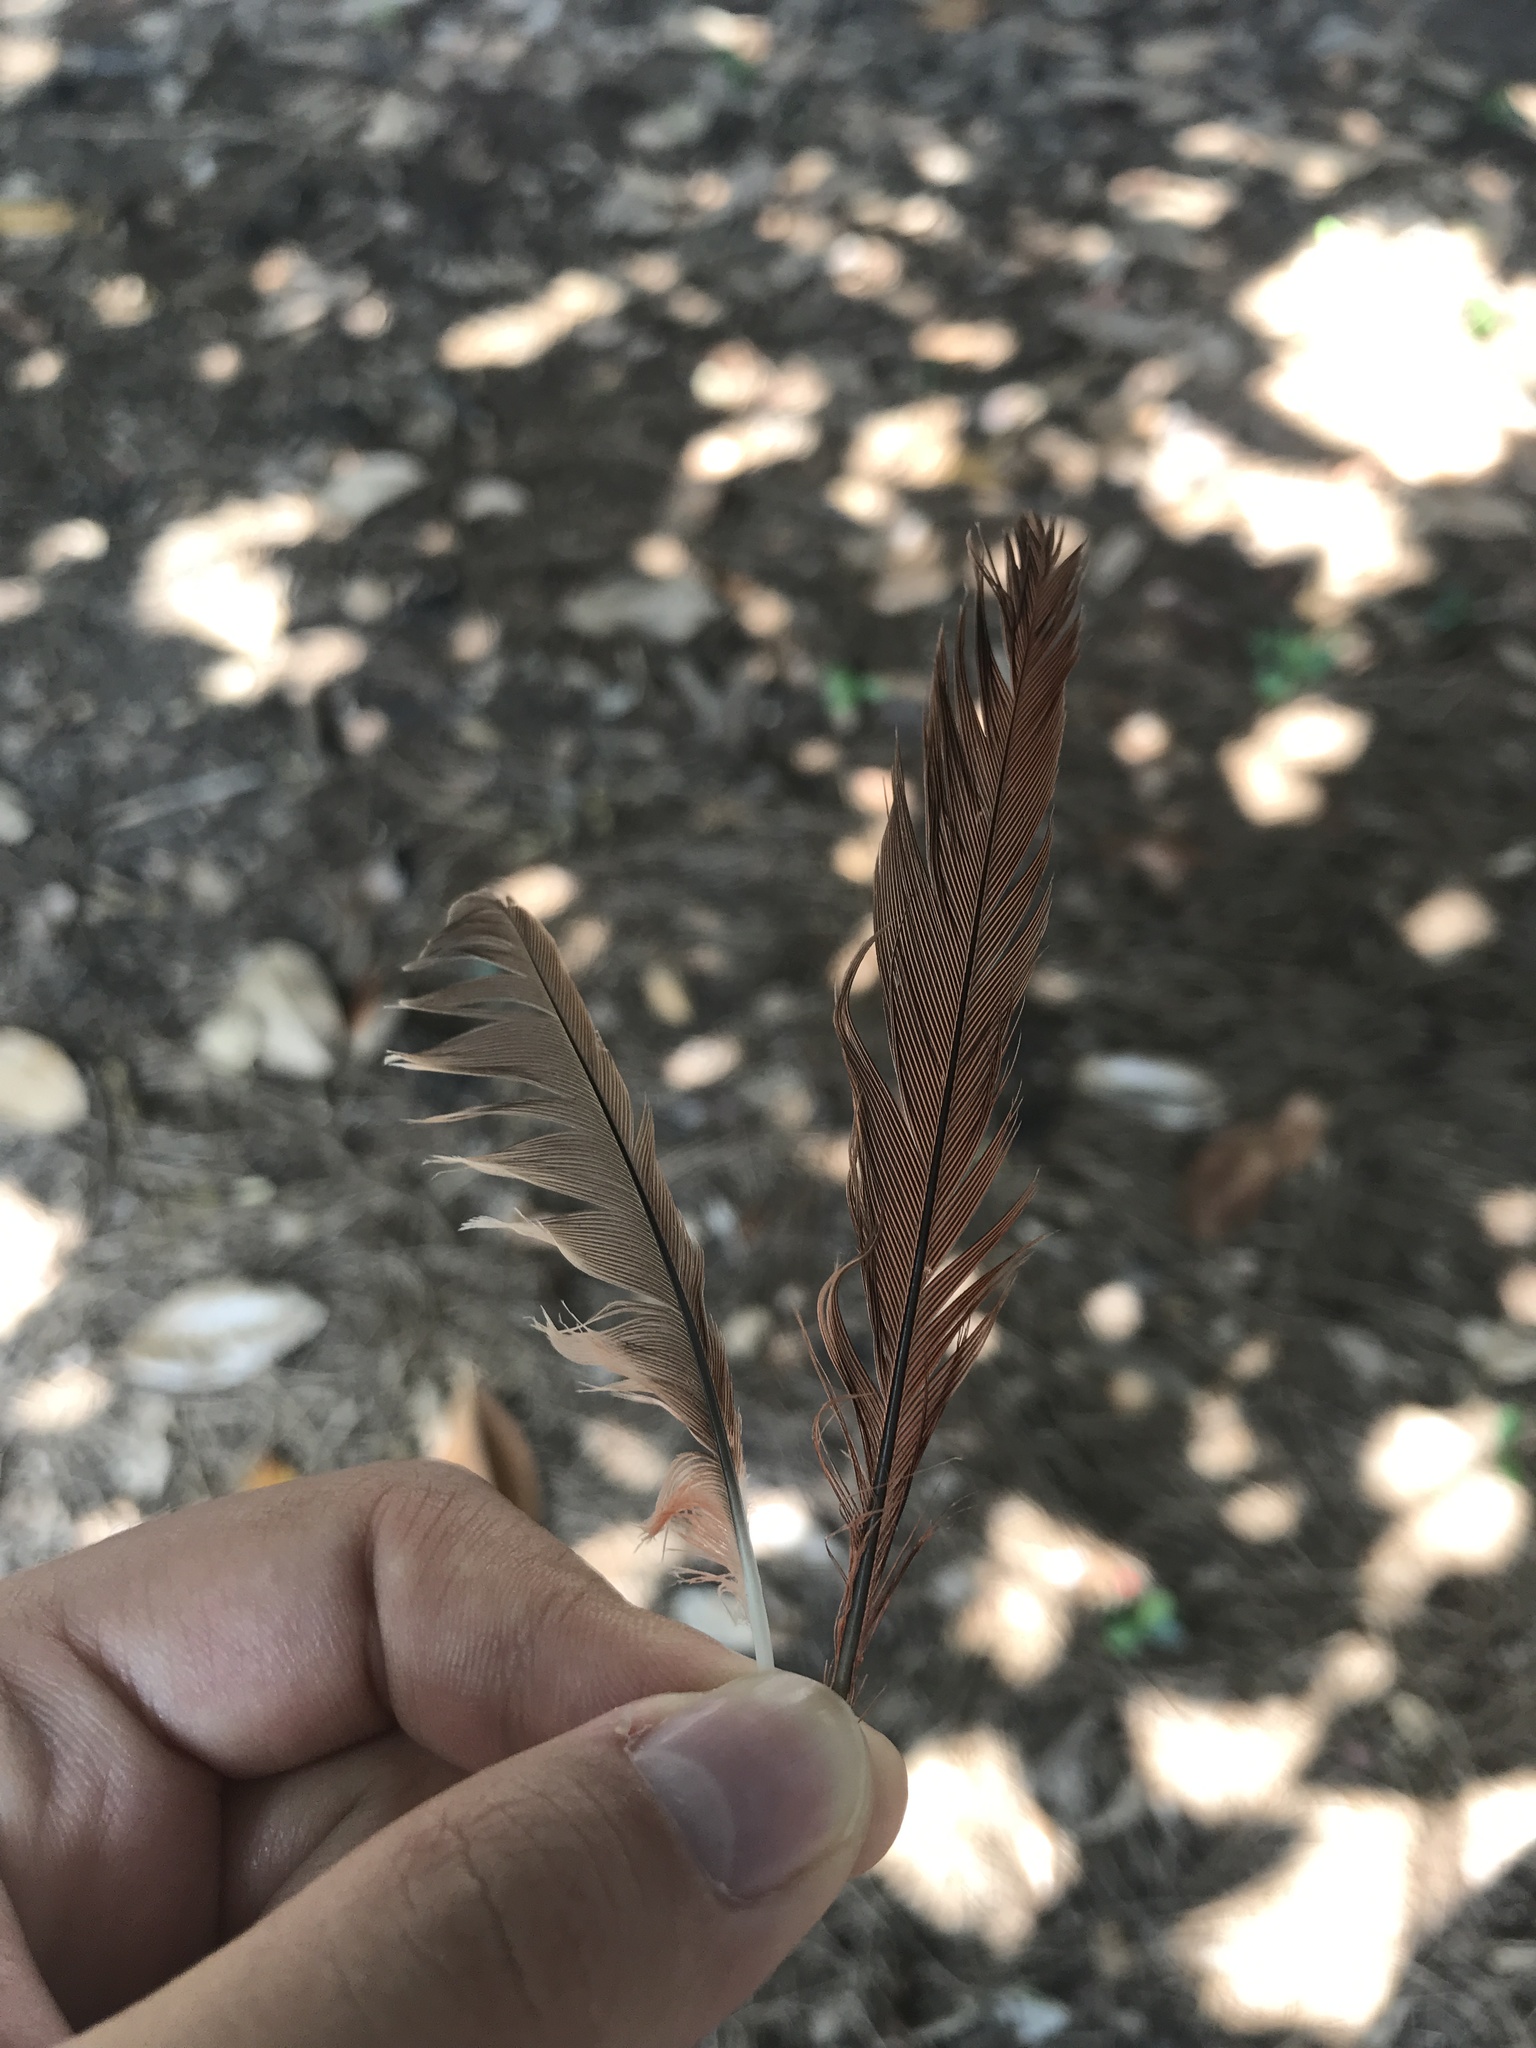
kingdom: Animalia
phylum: Chordata
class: Aves
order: Passeriformes
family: Cardinalidae
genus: Cardinalis
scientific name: Cardinalis cardinalis
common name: Northern cardinal
